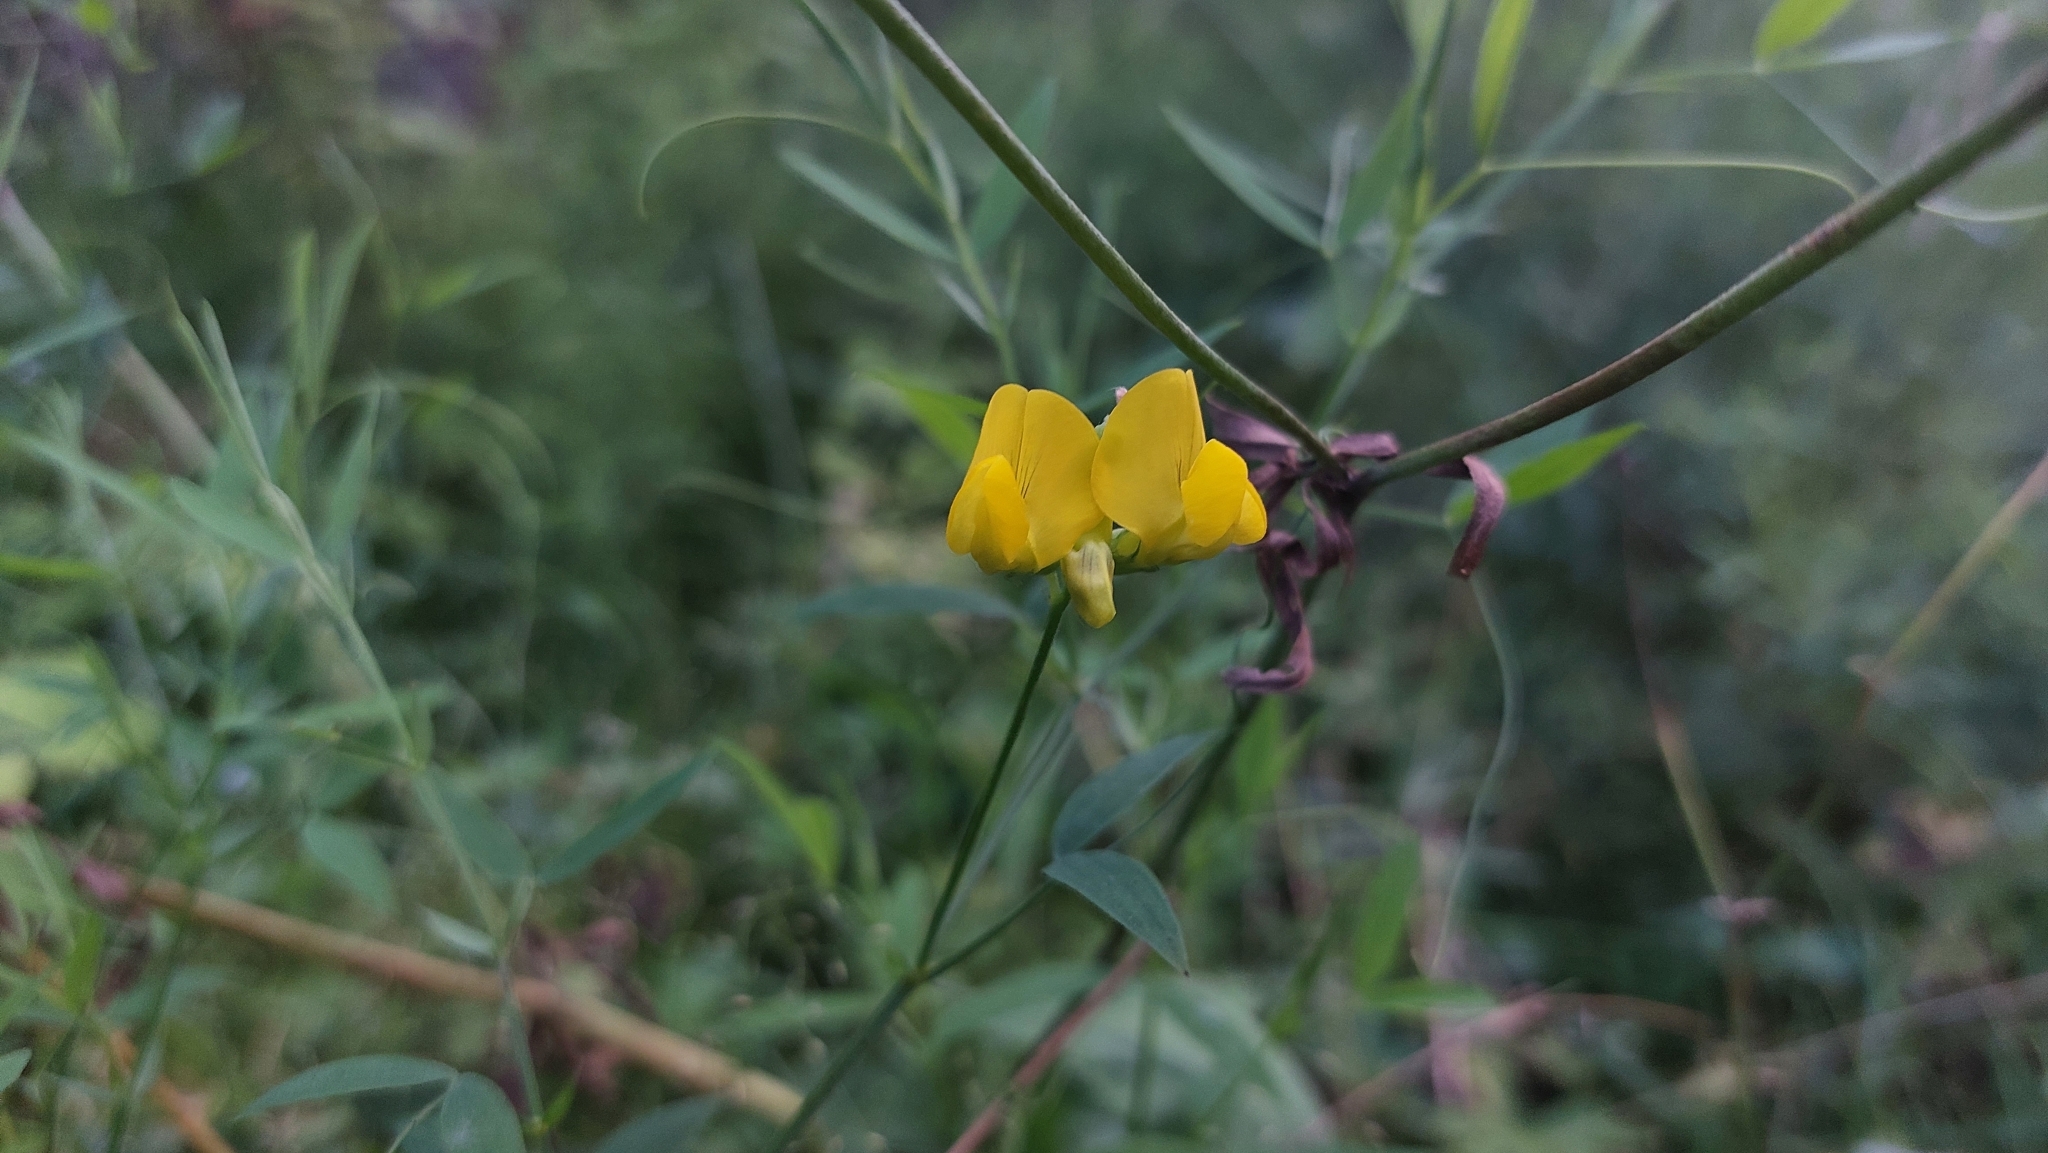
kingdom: Plantae
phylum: Tracheophyta
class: Magnoliopsida
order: Fabales
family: Fabaceae
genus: Lathyrus
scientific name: Lathyrus pratensis
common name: Meadow vetchling
